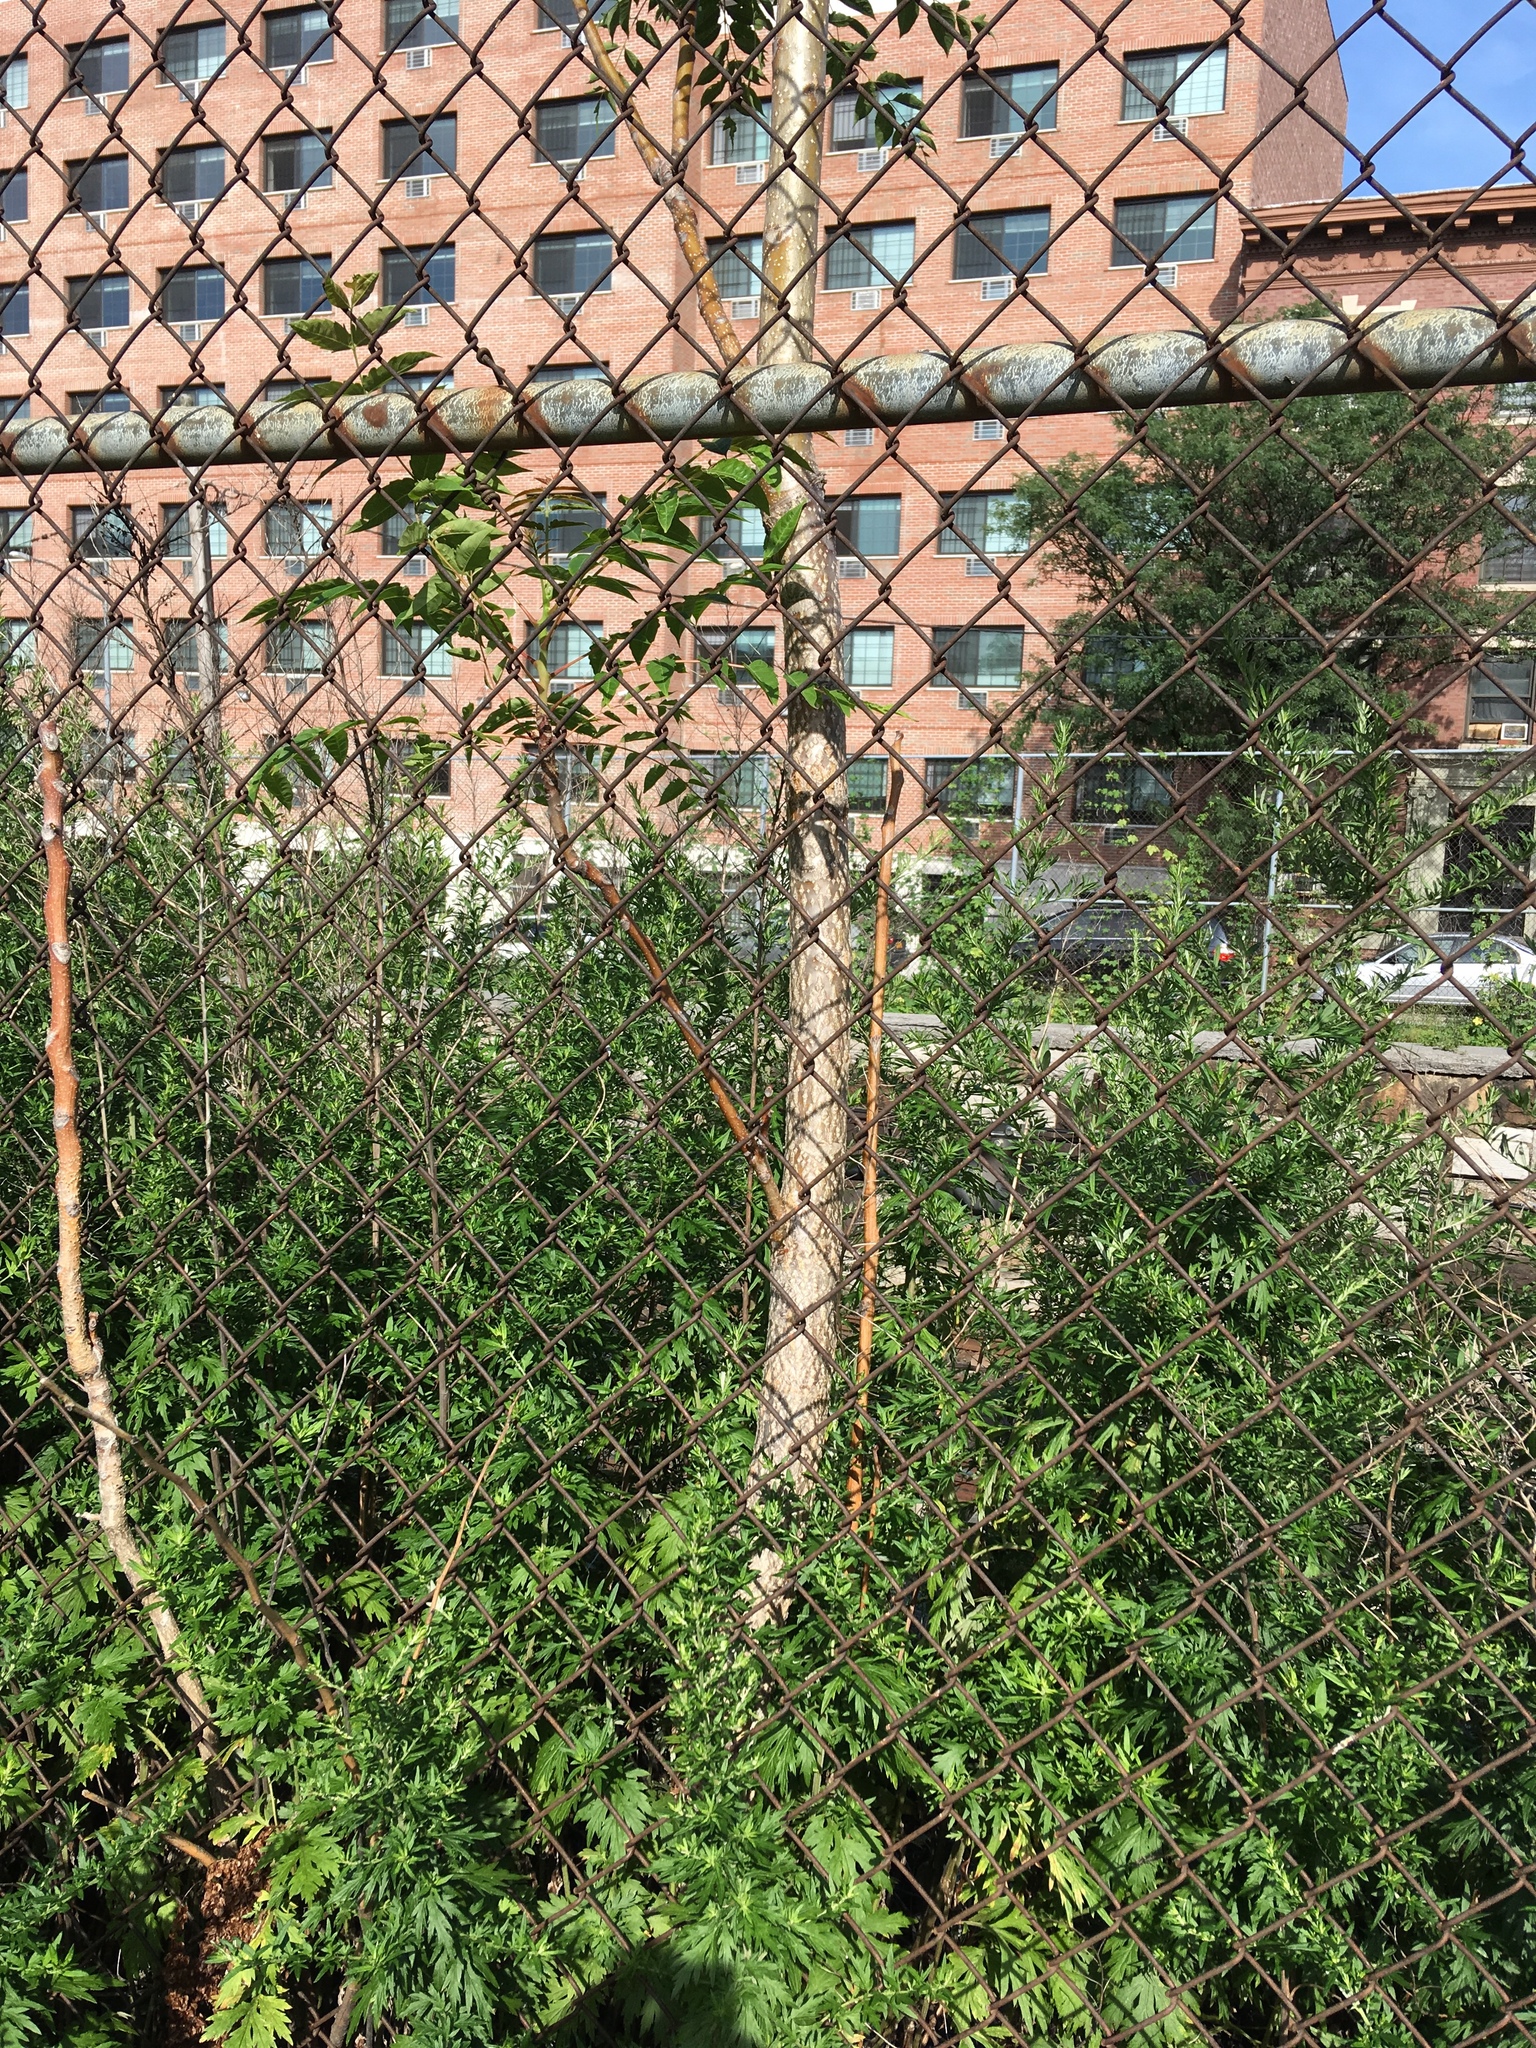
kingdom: Plantae
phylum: Tracheophyta
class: Magnoliopsida
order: Sapindales
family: Simaroubaceae
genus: Ailanthus
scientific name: Ailanthus altissima
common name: Tree-of-heaven
